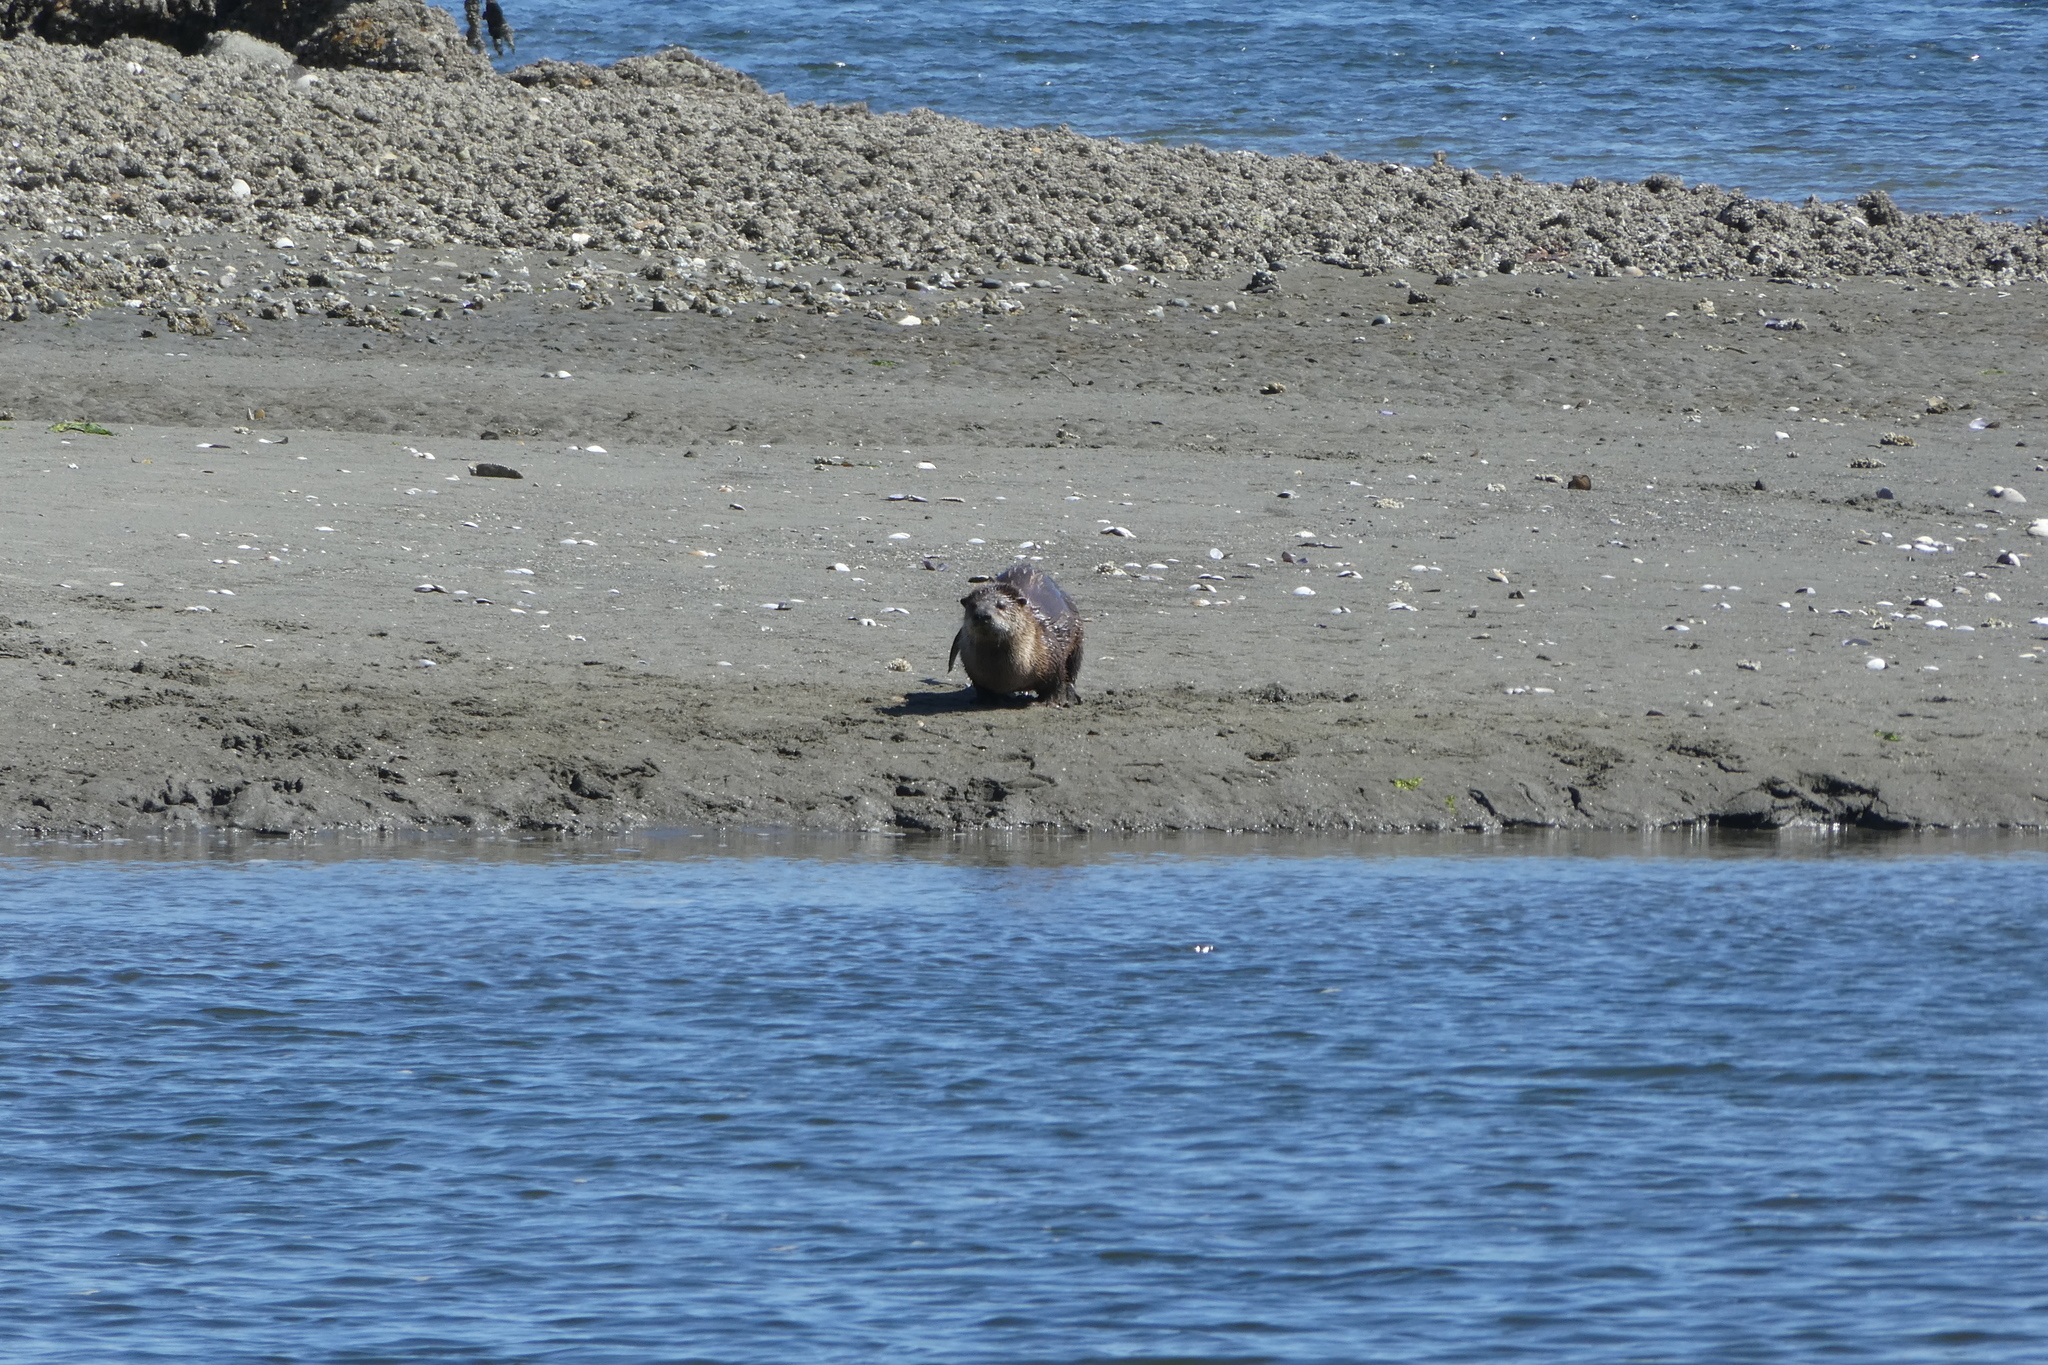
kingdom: Animalia
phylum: Chordata
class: Mammalia
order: Carnivora
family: Mustelidae
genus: Lontra
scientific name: Lontra canadensis
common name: North american river otter
